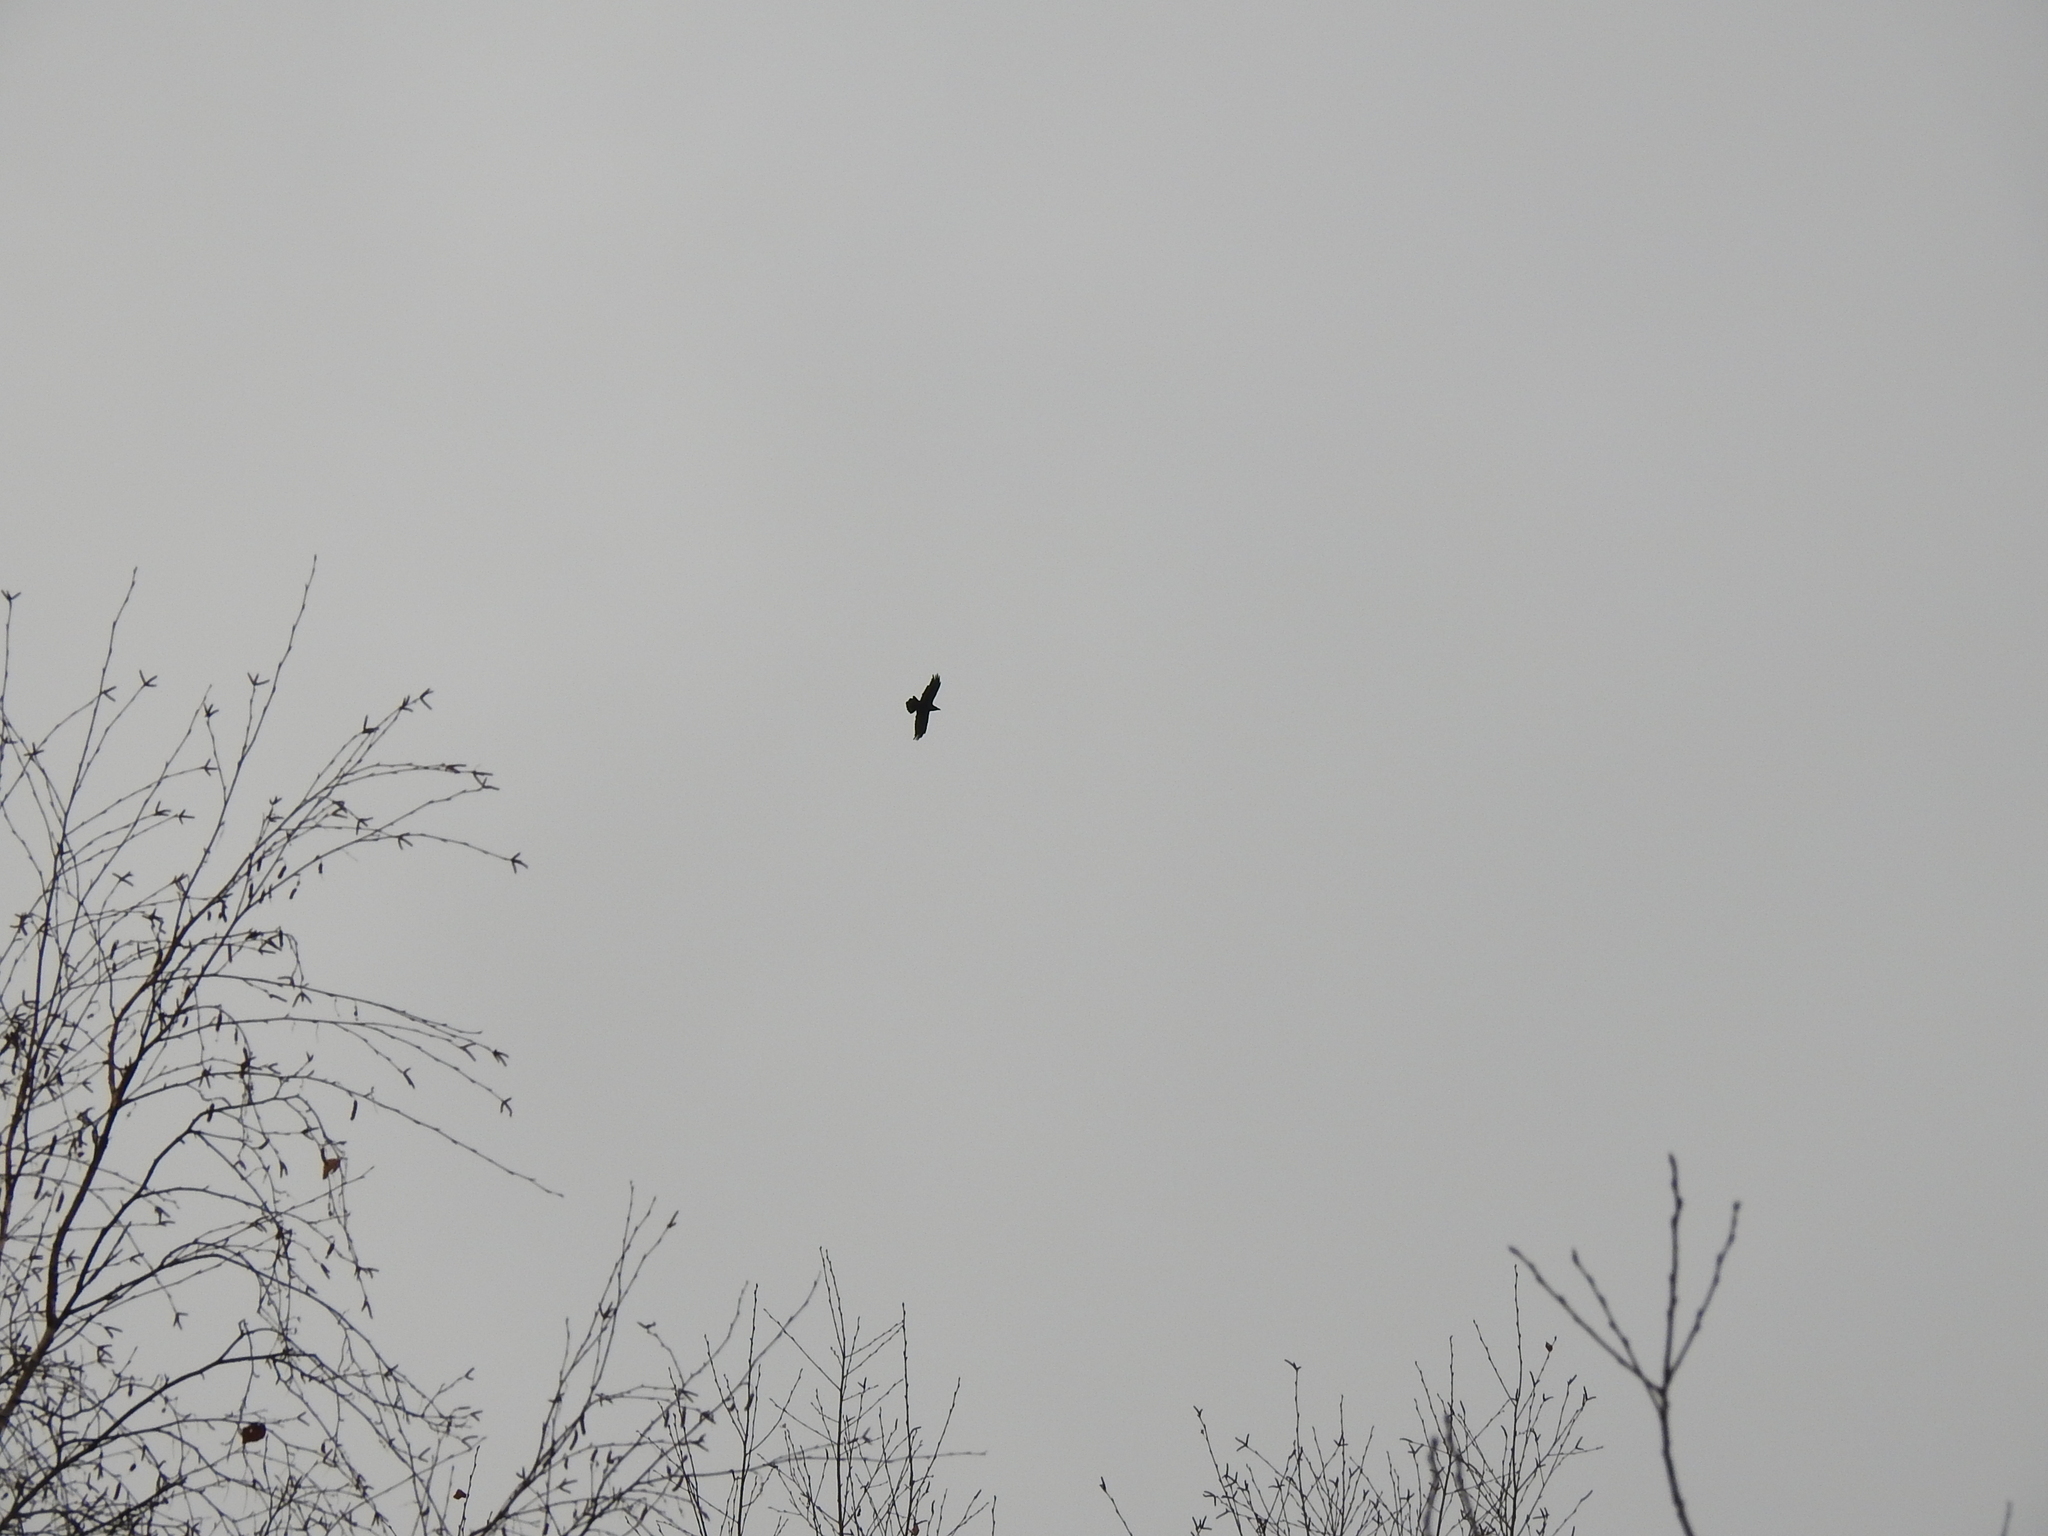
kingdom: Animalia
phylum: Chordata
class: Aves
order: Passeriformes
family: Corvidae
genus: Corvus
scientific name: Corvus corax
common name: Common raven
